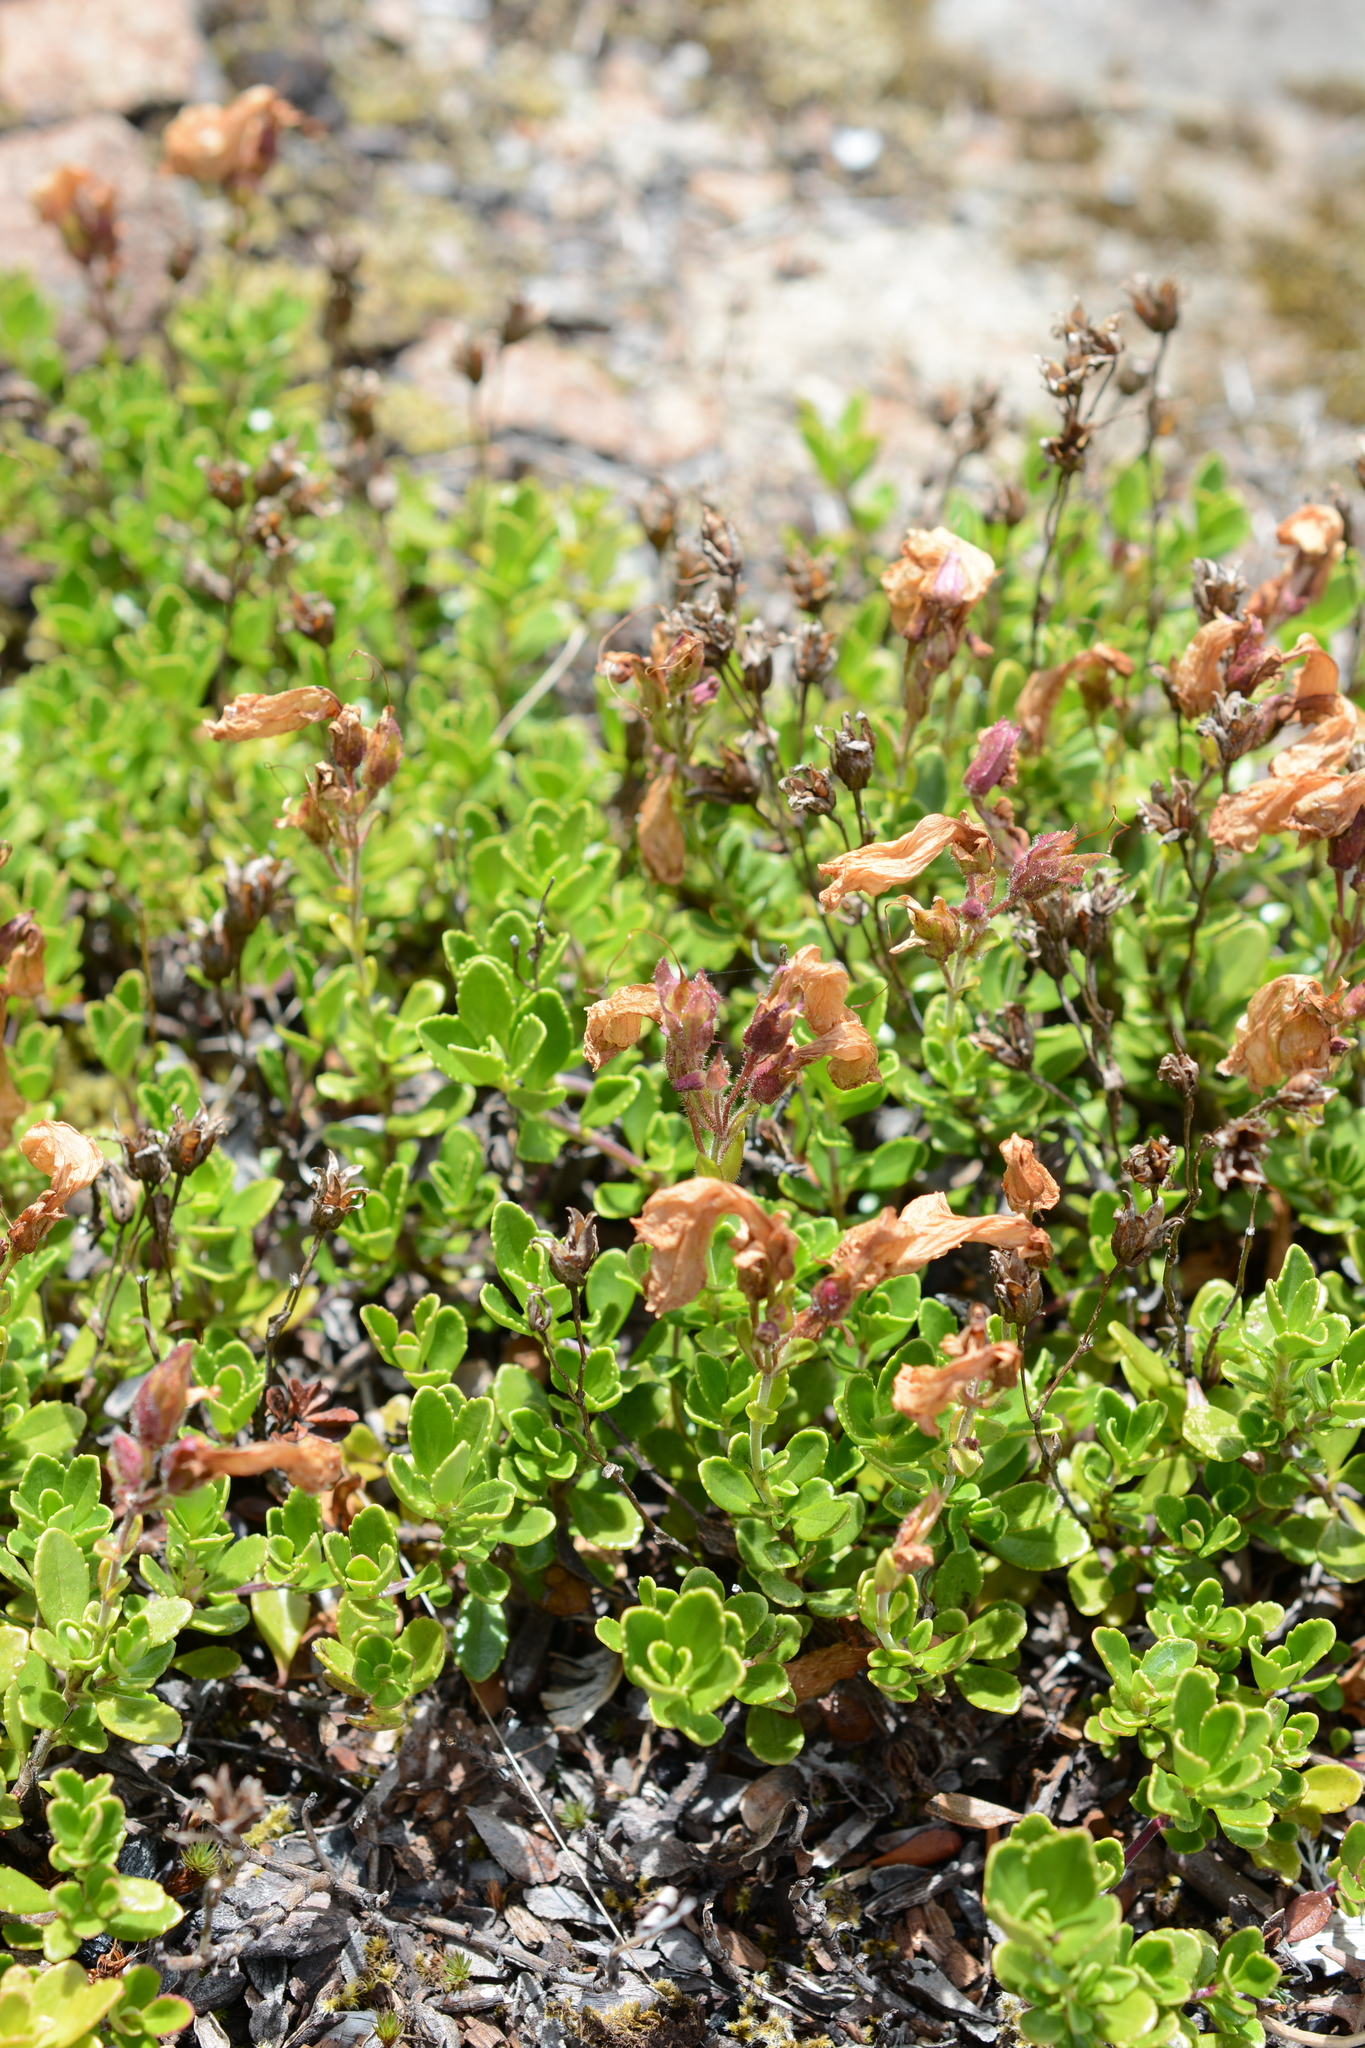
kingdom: Plantae
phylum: Tracheophyta
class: Magnoliopsida
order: Lamiales
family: Plantaginaceae
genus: Penstemon
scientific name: Penstemon davidsonii
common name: Davidson's penstemon
